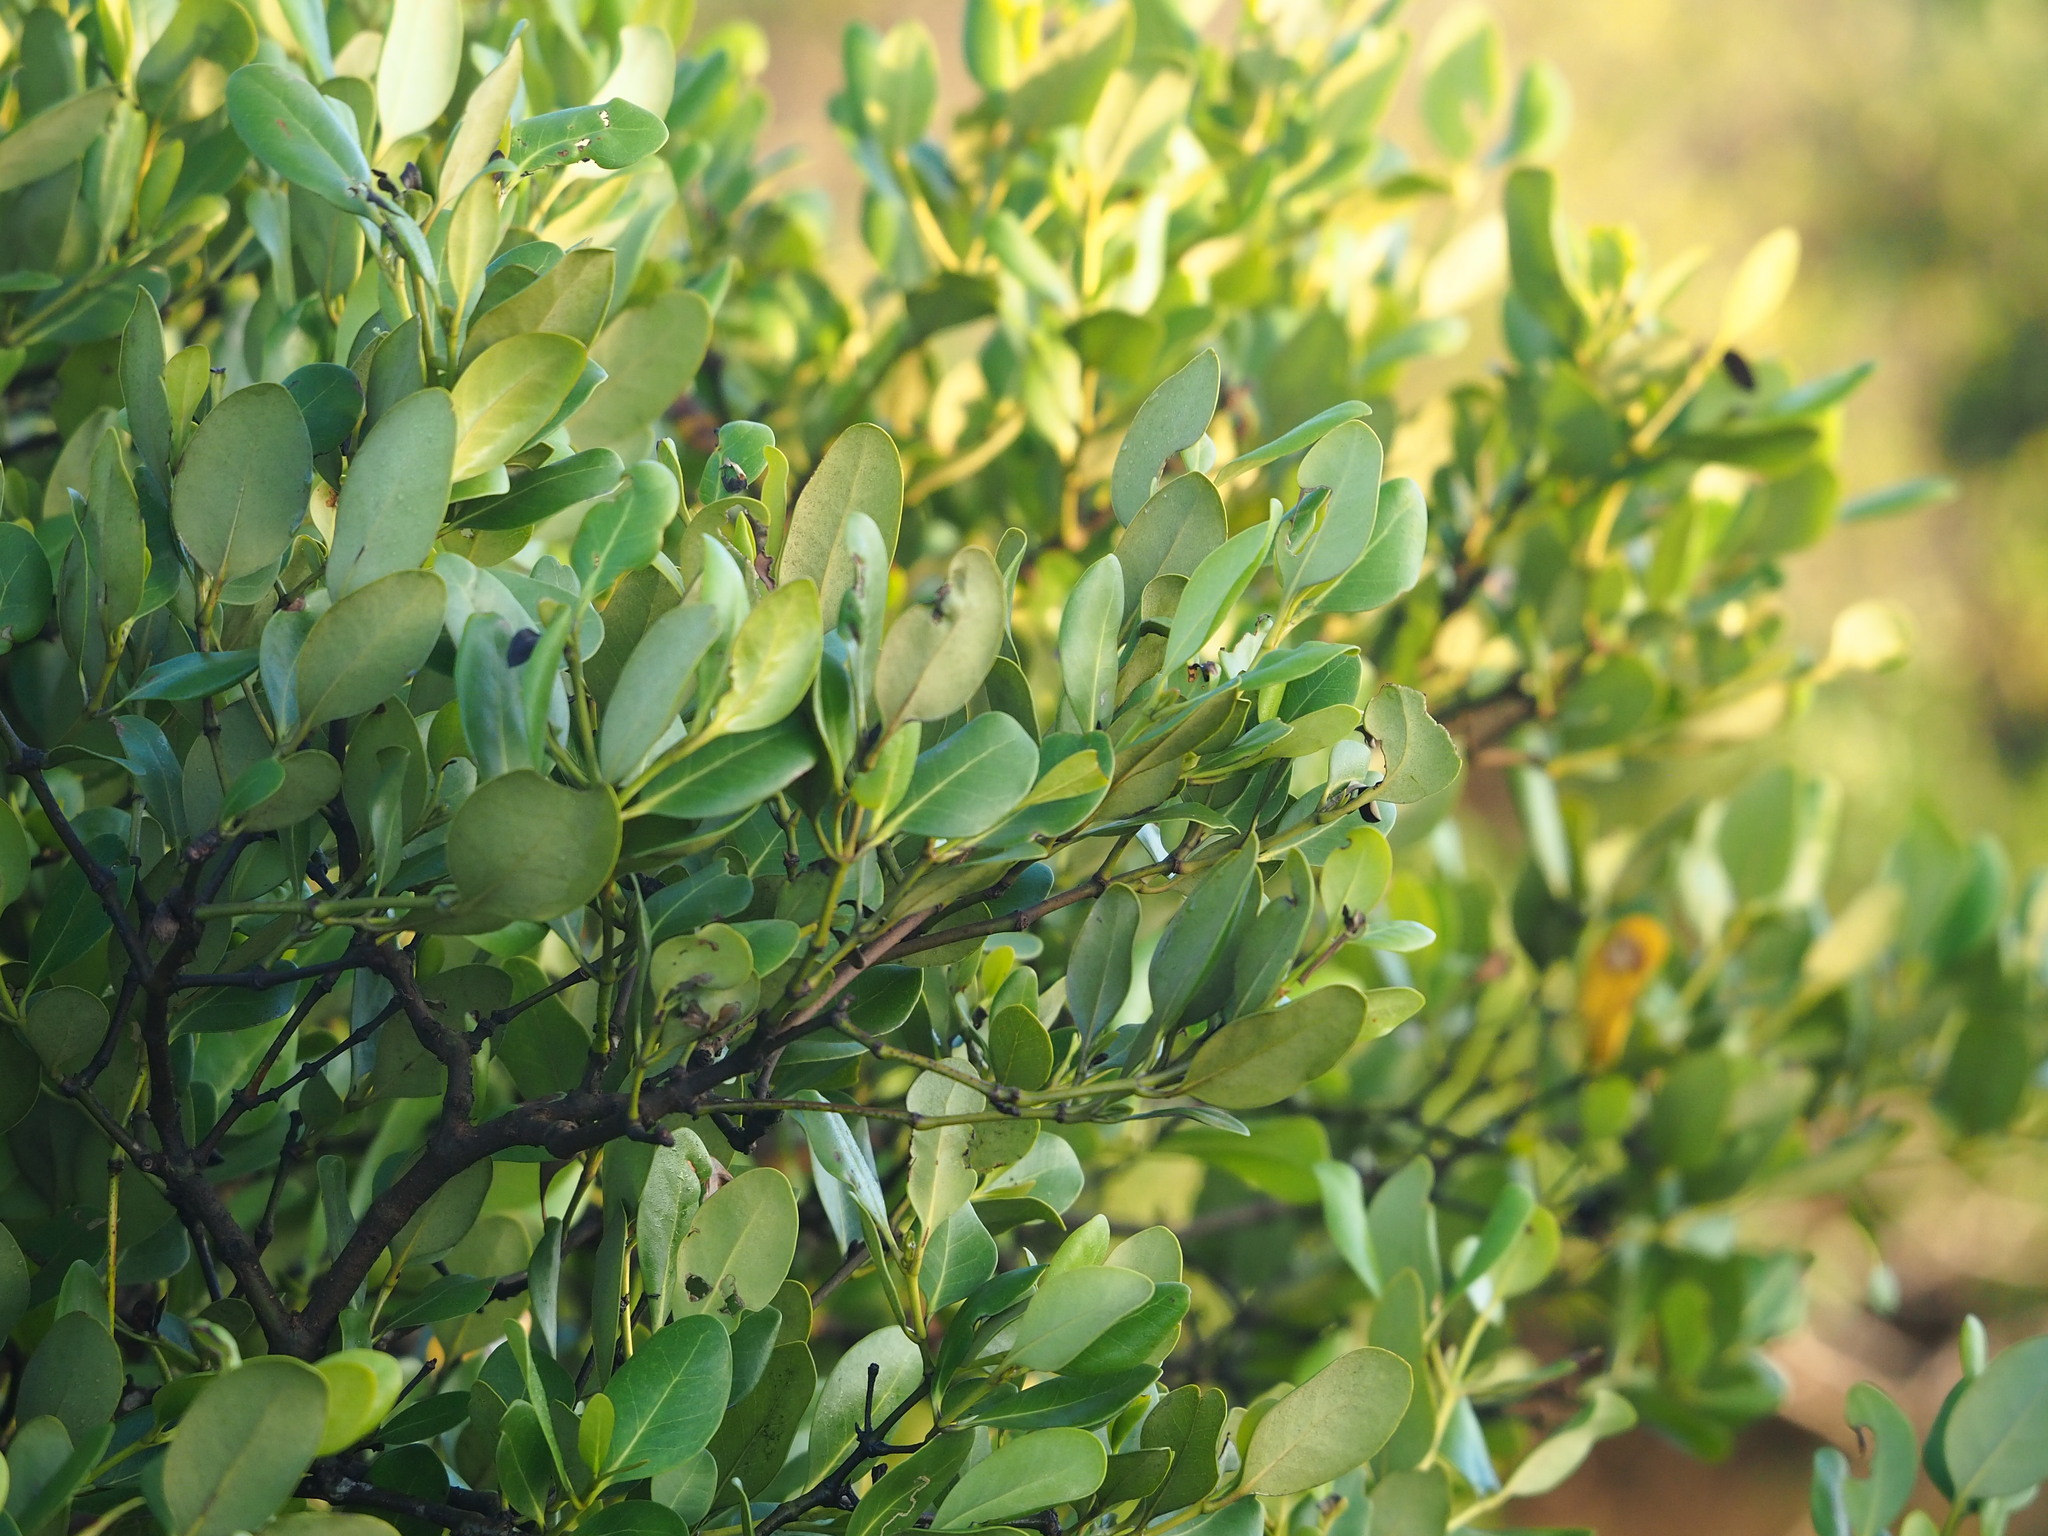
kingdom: Plantae
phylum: Tracheophyta
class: Magnoliopsida
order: Lamiales
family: Acanthaceae
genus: Avicennia
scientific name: Avicennia marina
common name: Gray mangrove
